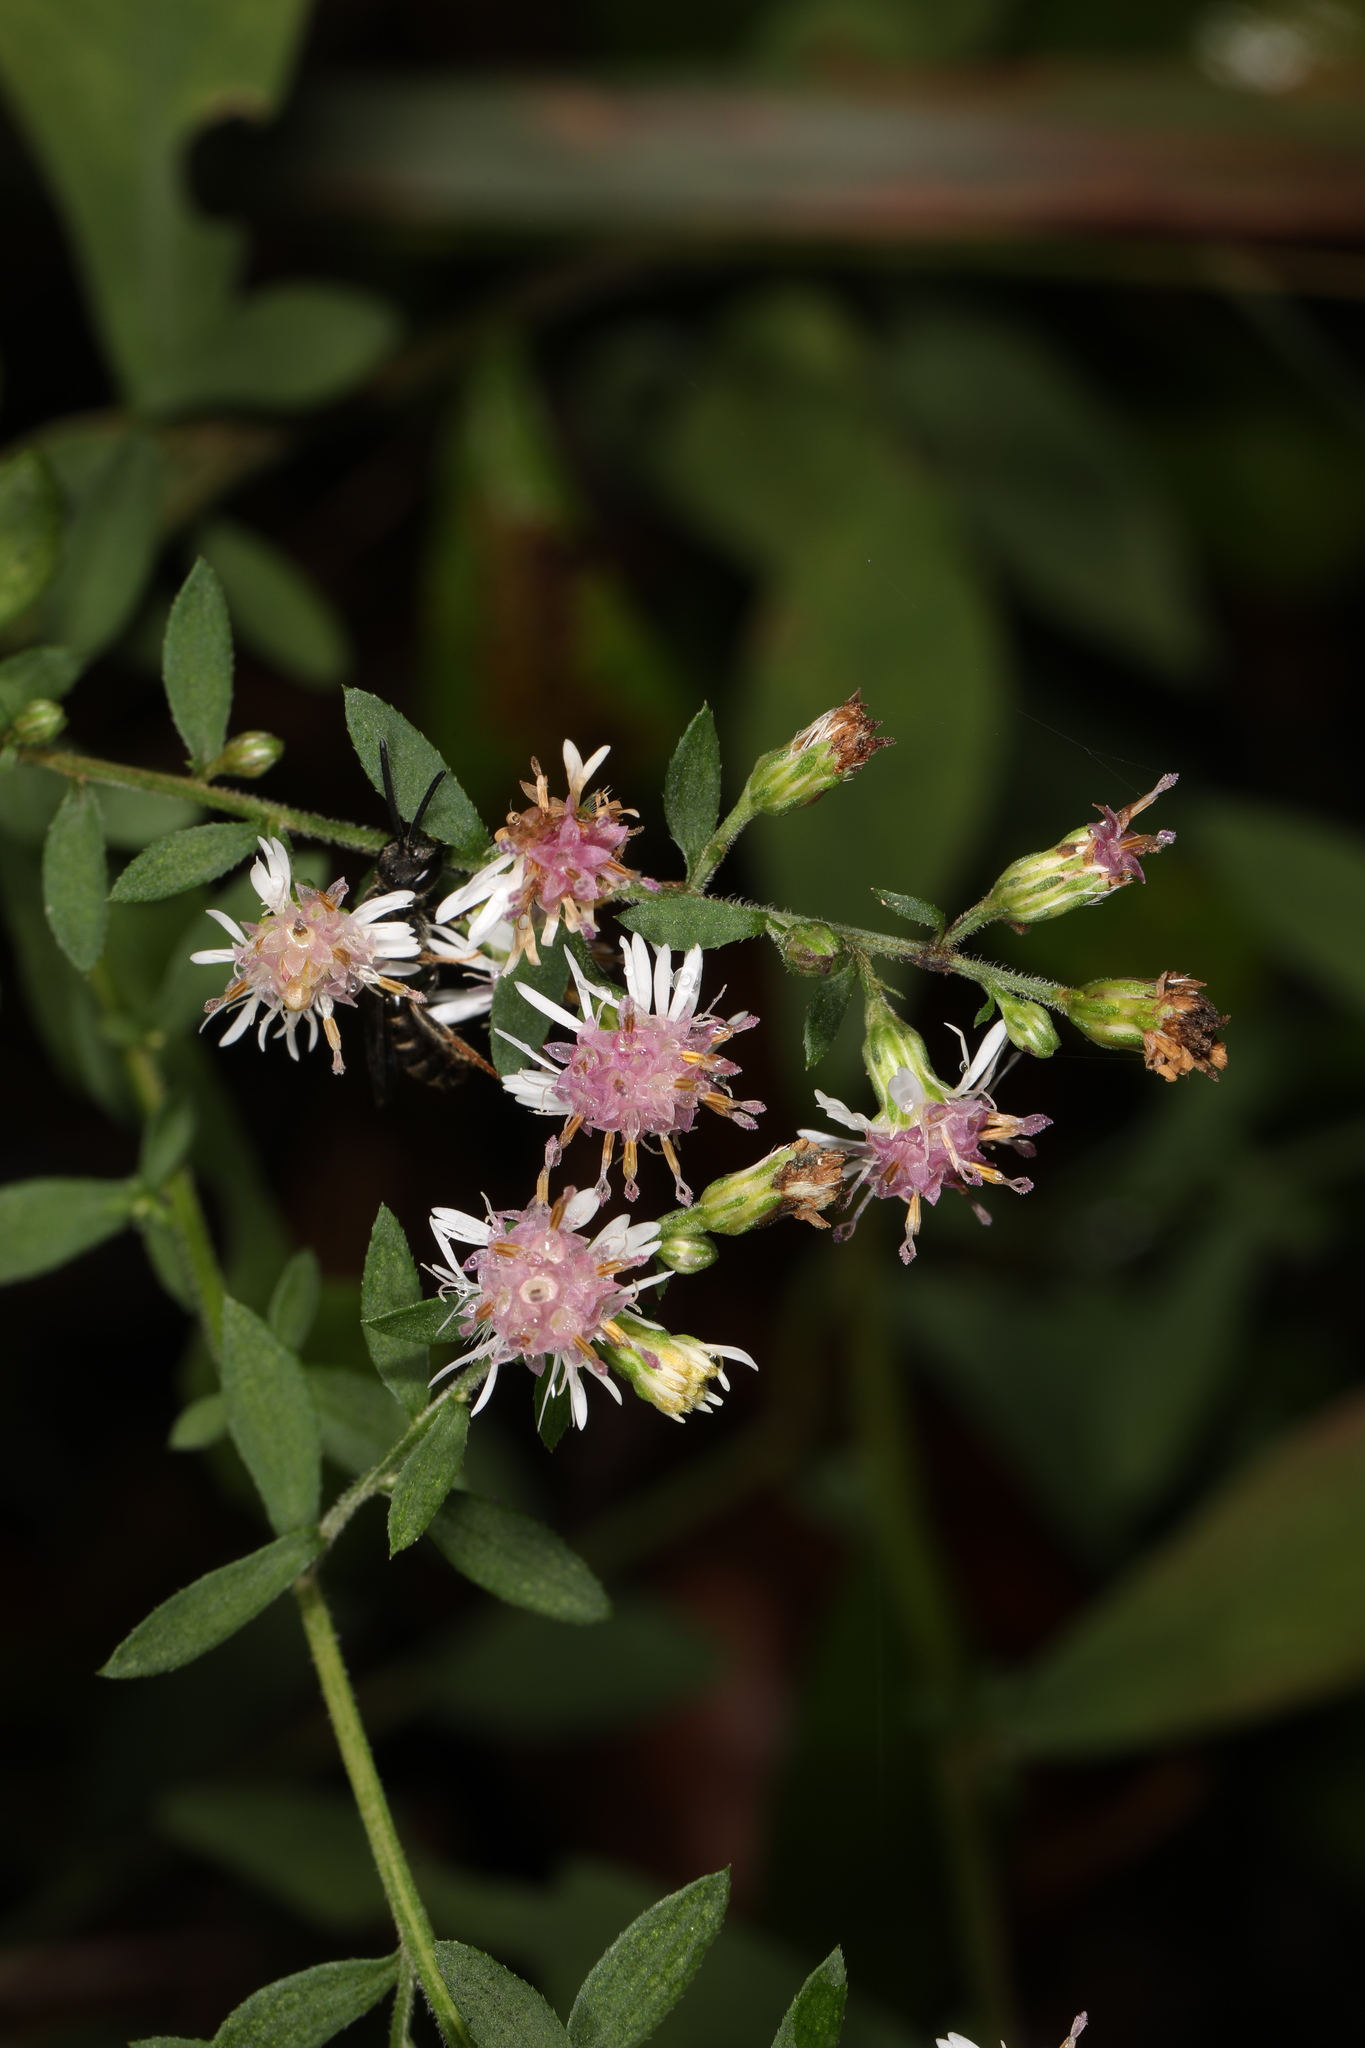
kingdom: Plantae
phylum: Tracheophyta
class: Magnoliopsida
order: Asterales
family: Asteraceae
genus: Symphyotrichum
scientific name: Symphyotrichum lateriflorum
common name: Calico aster
